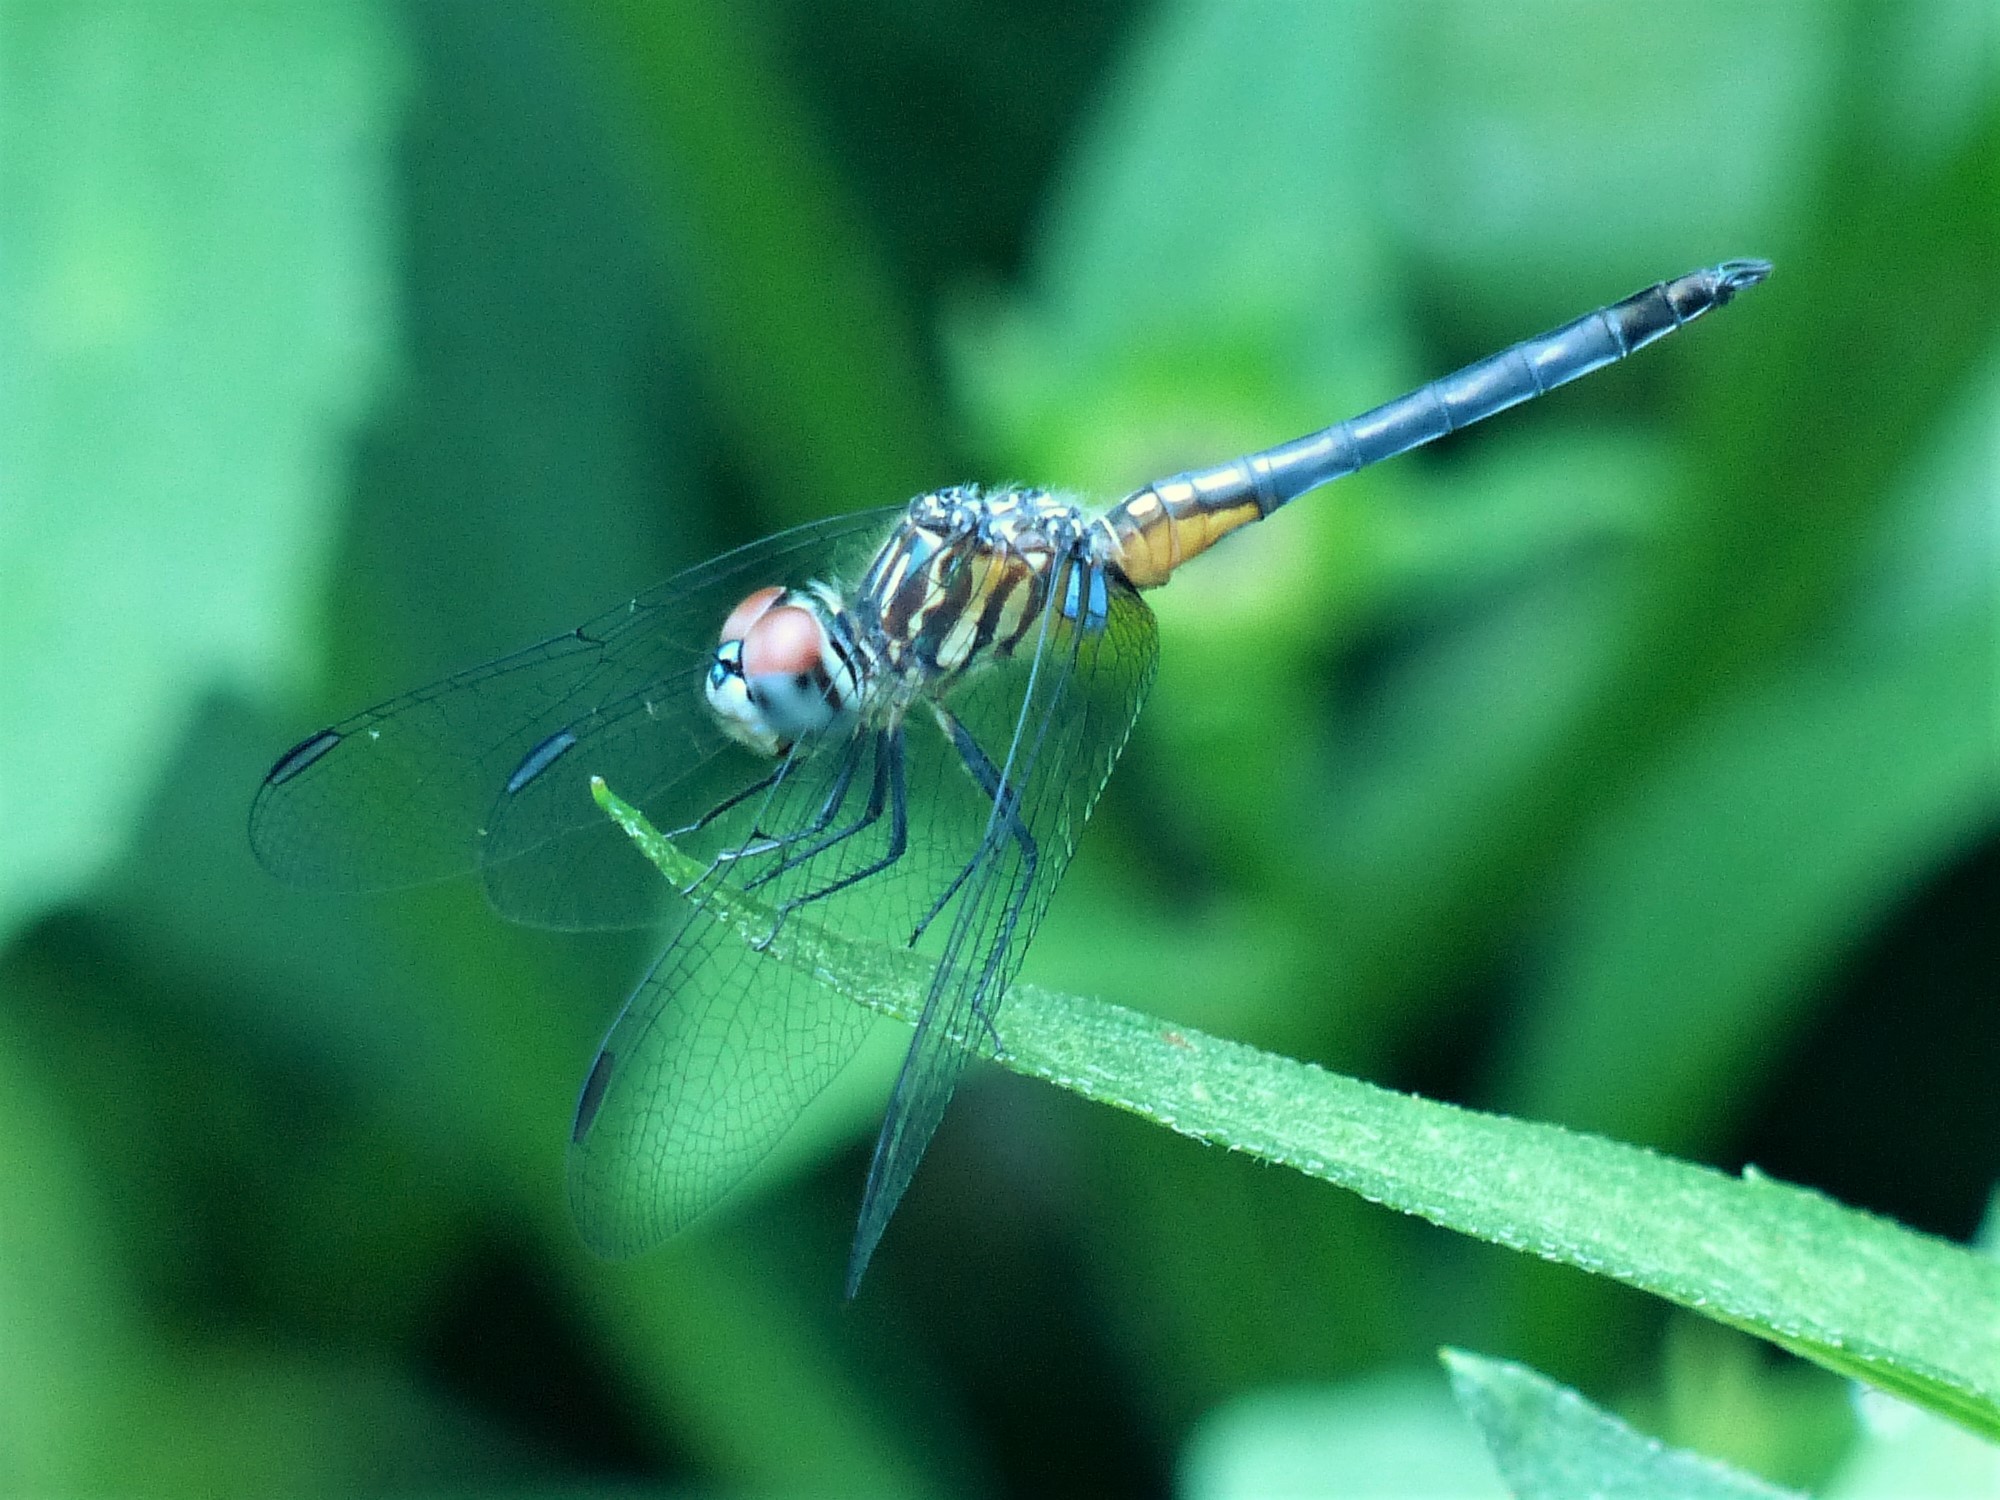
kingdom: Animalia
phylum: Arthropoda
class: Insecta
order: Odonata
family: Libellulidae
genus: Pachydiplax
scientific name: Pachydiplax longipennis
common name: Blue dasher
